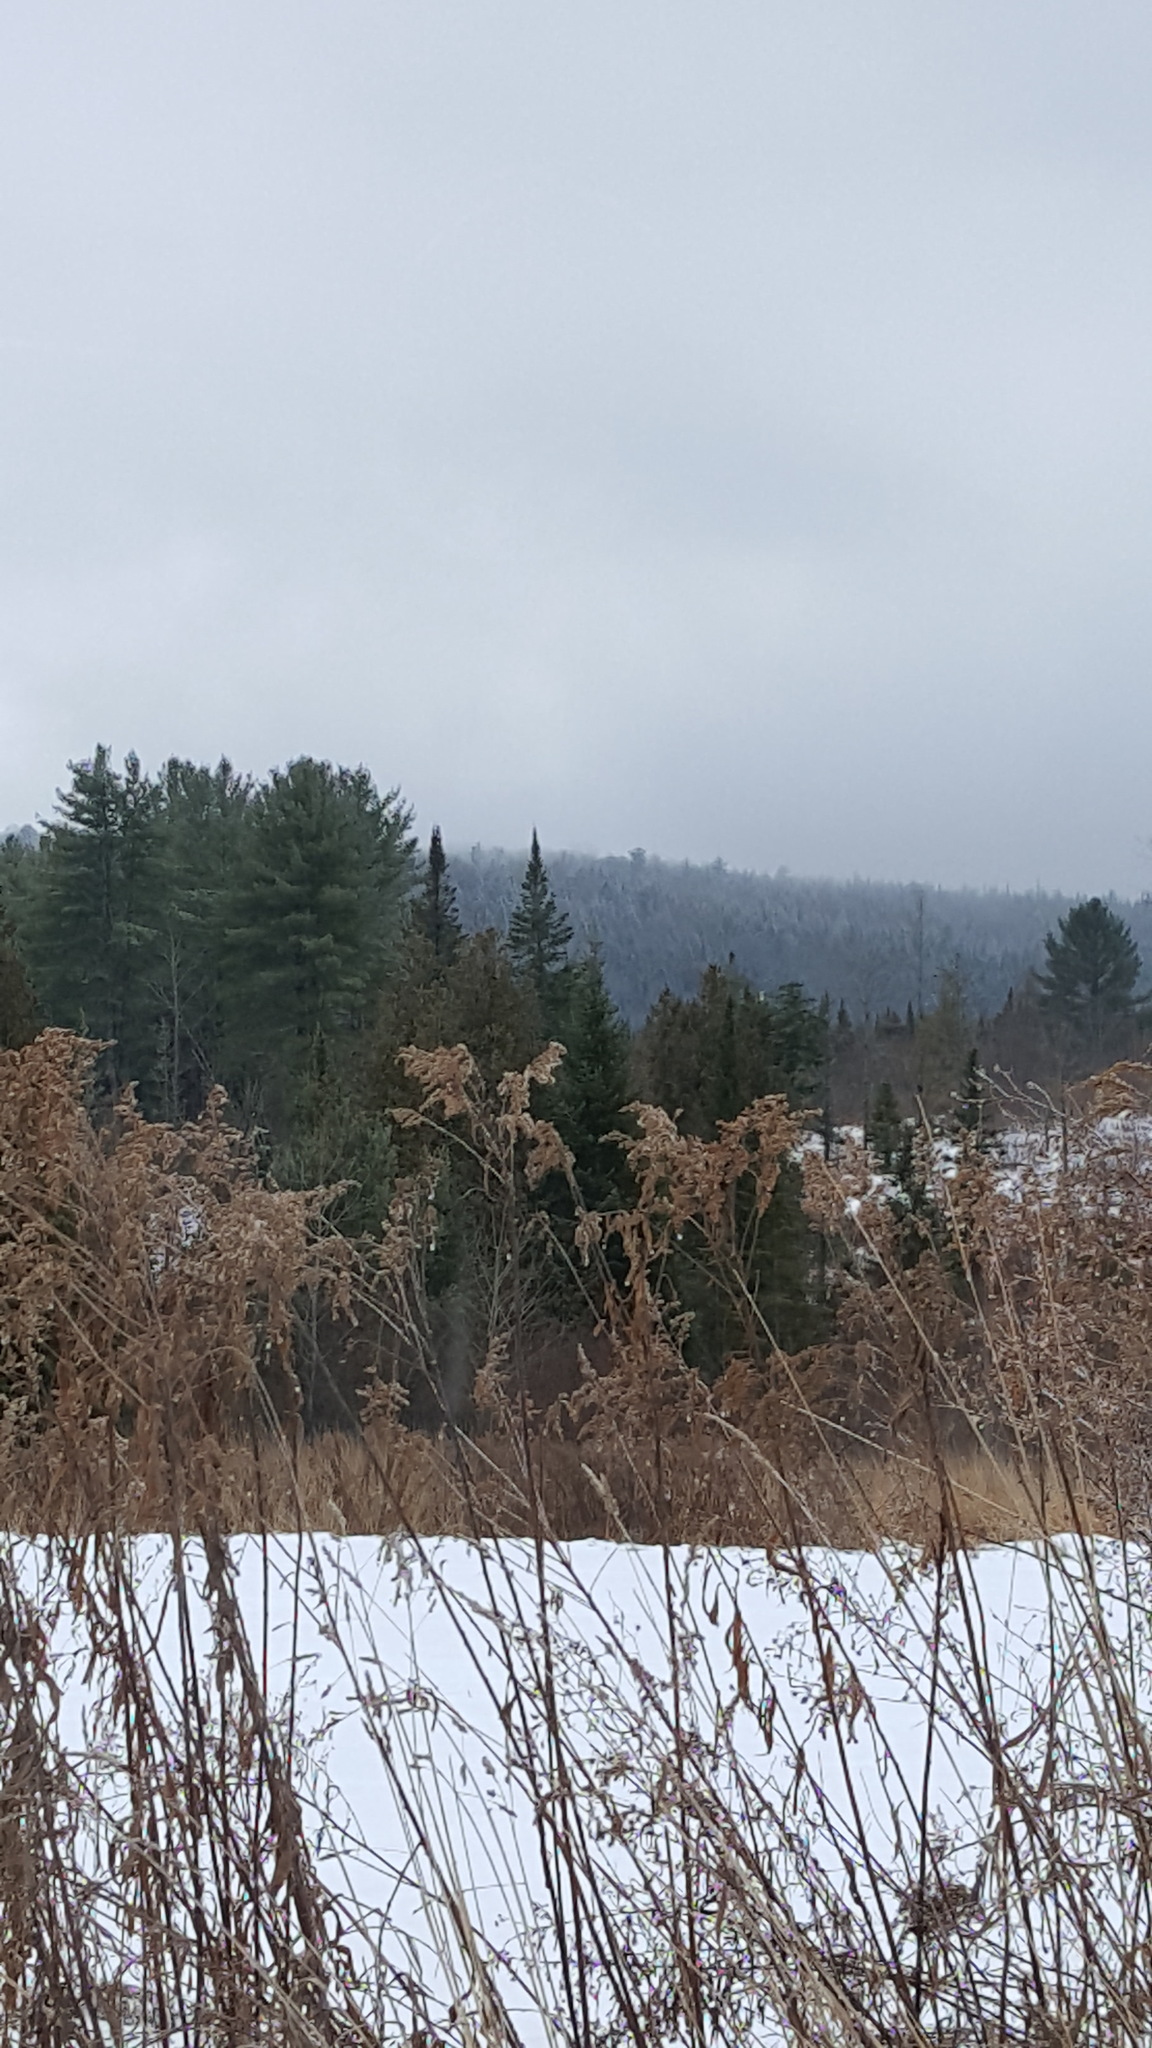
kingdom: Plantae
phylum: Tracheophyta
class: Pinopsida
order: Pinales
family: Pinaceae
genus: Abies
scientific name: Abies balsamea
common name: Balsam fir
